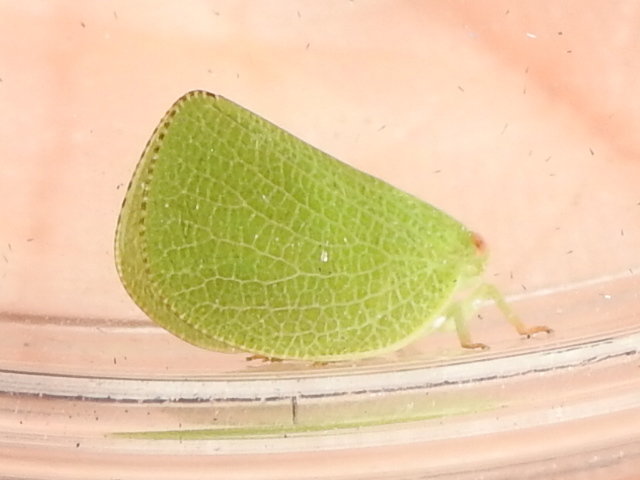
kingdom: Animalia
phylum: Arthropoda
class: Insecta
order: Hemiptera
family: Acanaloniidae
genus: Acanalonia
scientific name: Acanalonia conica
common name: Green cone-headed planthopper
